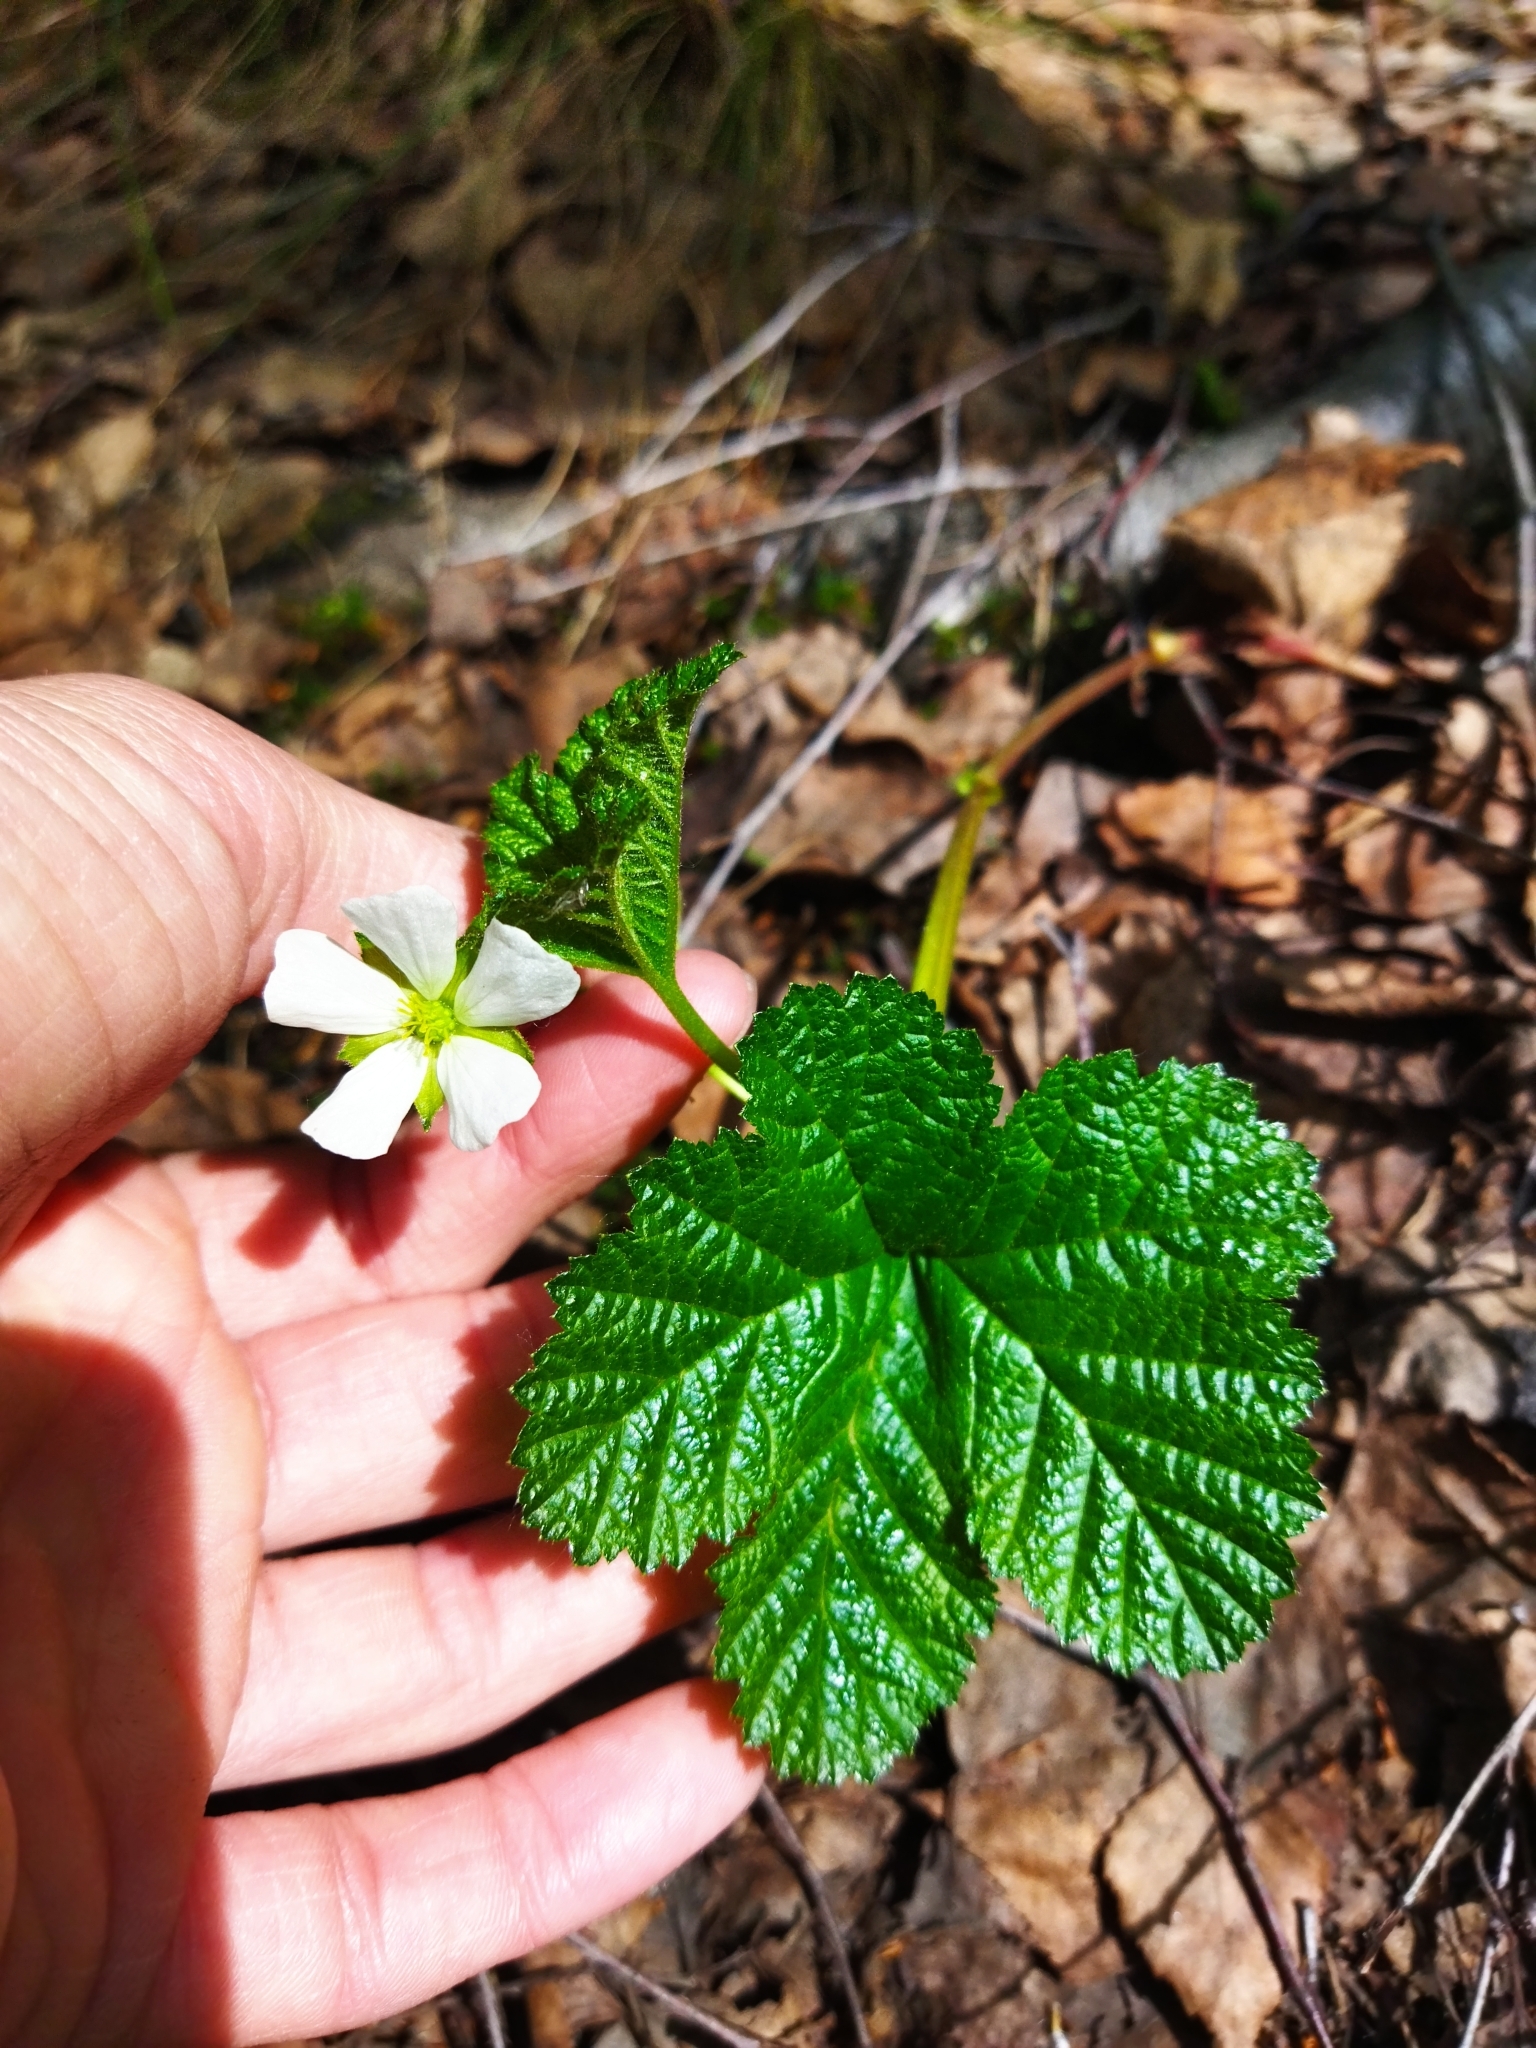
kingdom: Plantae
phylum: Tracheophyta
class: Magnoliopsida
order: Rosales
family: Rosaceae
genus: Rubus
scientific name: Rubus chamaemorus
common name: Cloudberry
